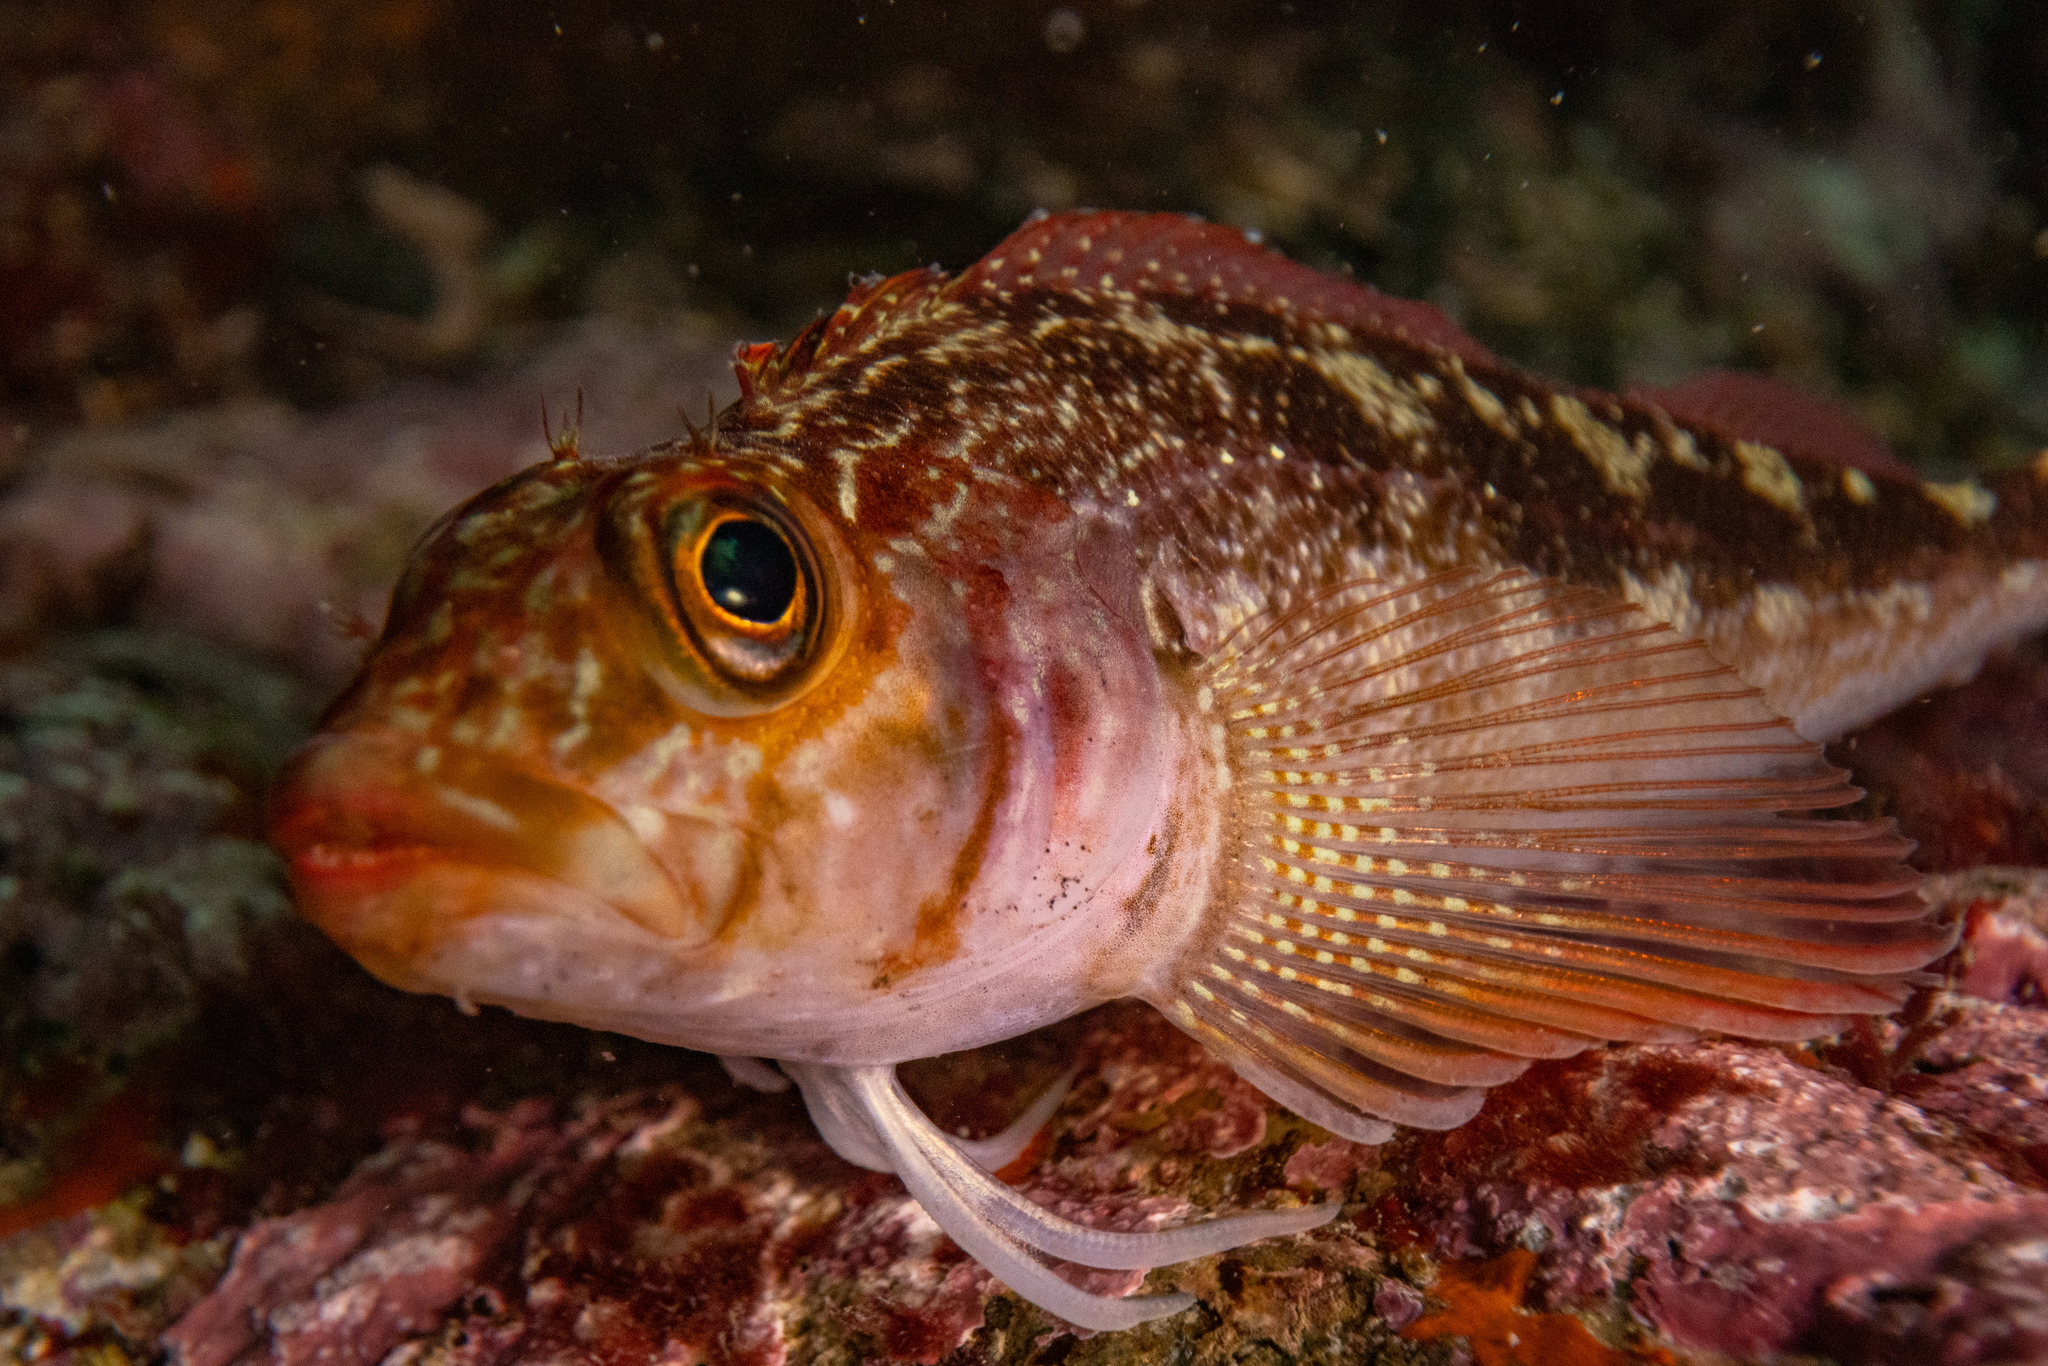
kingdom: Animalia
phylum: Chordata
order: Perciformes
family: Tripterygiidae
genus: Forsterygion
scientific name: Forsterygion varium
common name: Variable triplefin
